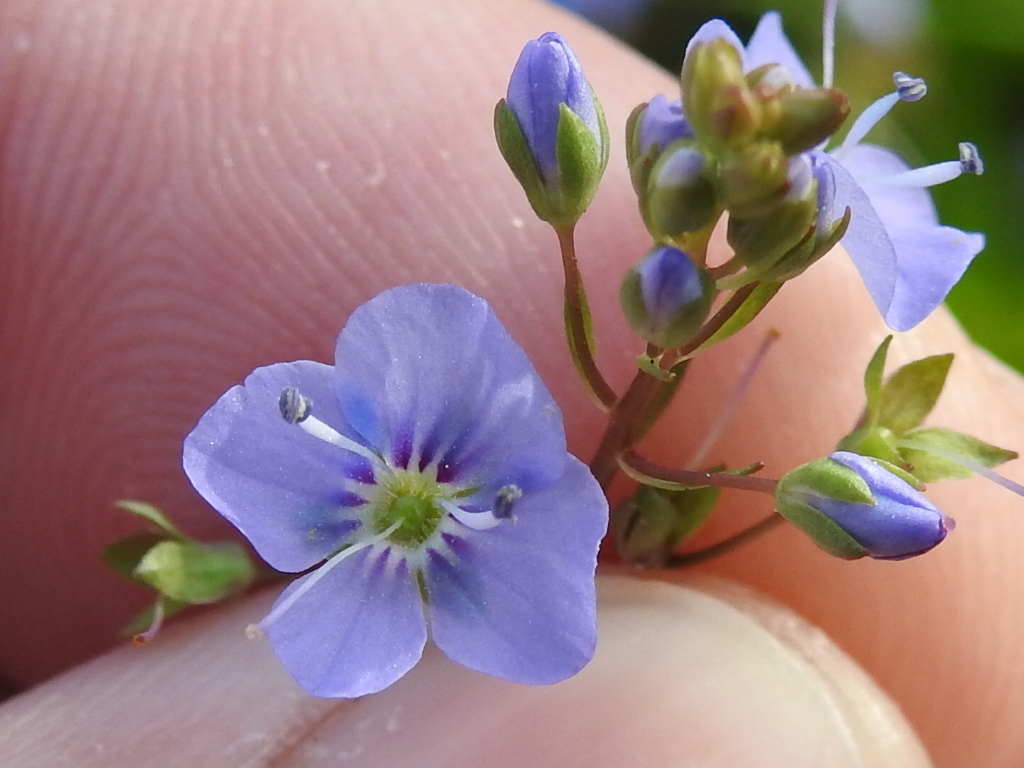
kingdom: Plantae
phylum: Tracheophyta
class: Magnoliopsida
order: Lamiales
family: Plantaginaceae
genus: Veronica
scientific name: Veronica americana
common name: American brooklime
